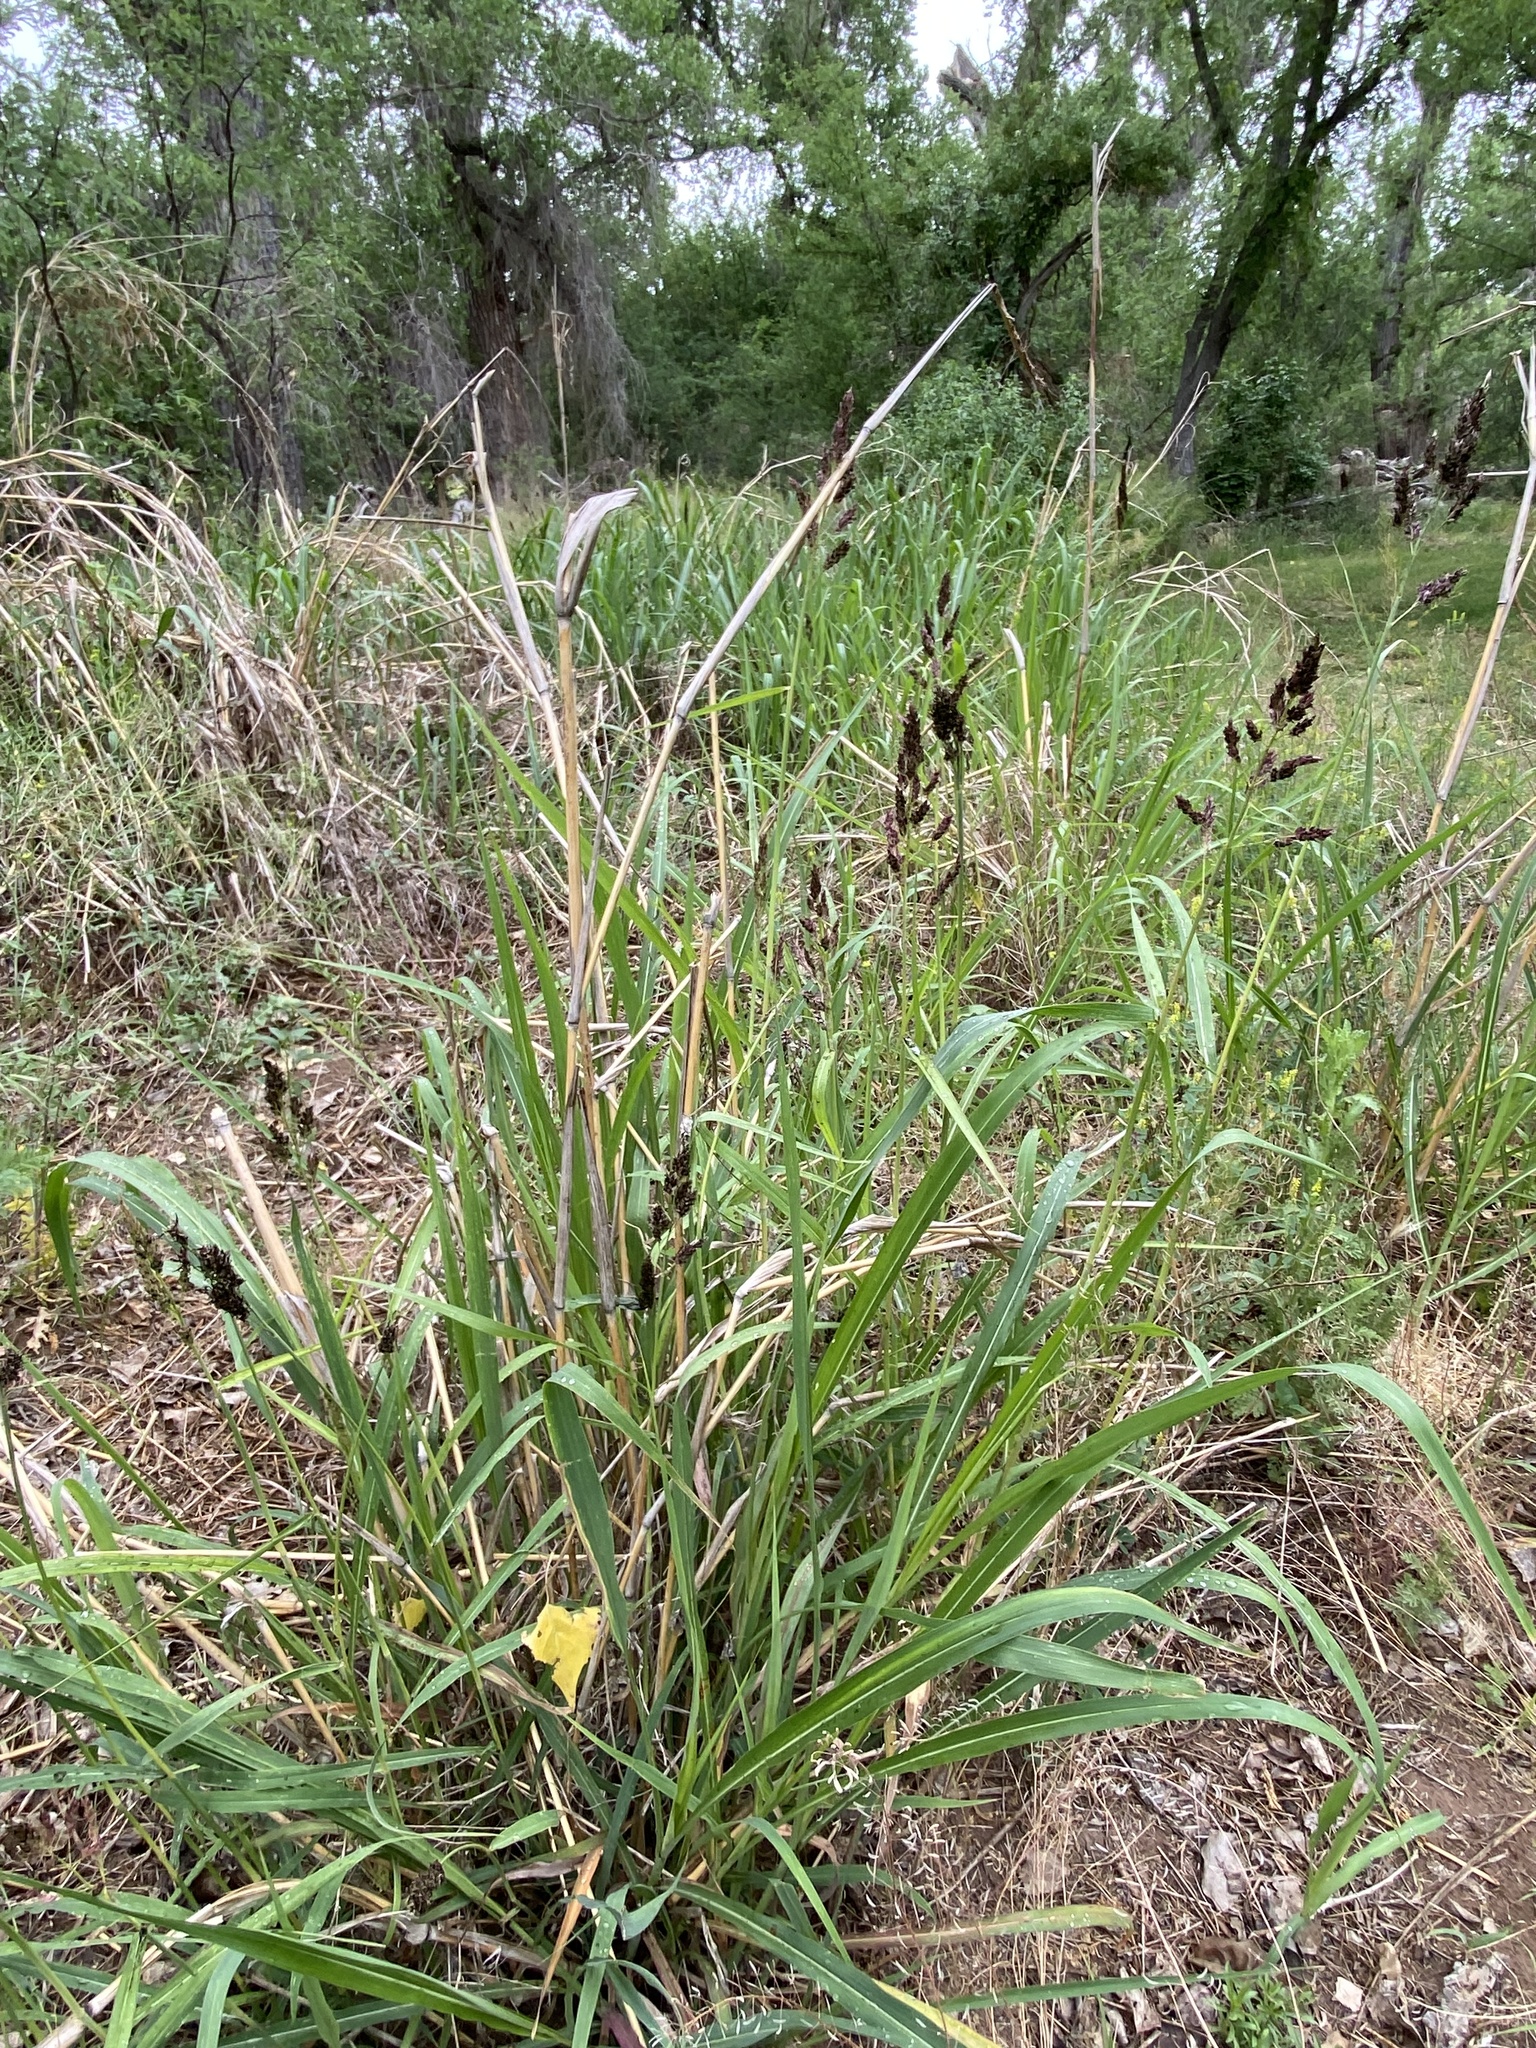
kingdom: Plantae
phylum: Tracheophyta
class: Liliopsida
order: Poales
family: Poaceae
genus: Sorghum
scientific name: Sorghum halepense
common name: Johnson-grass
